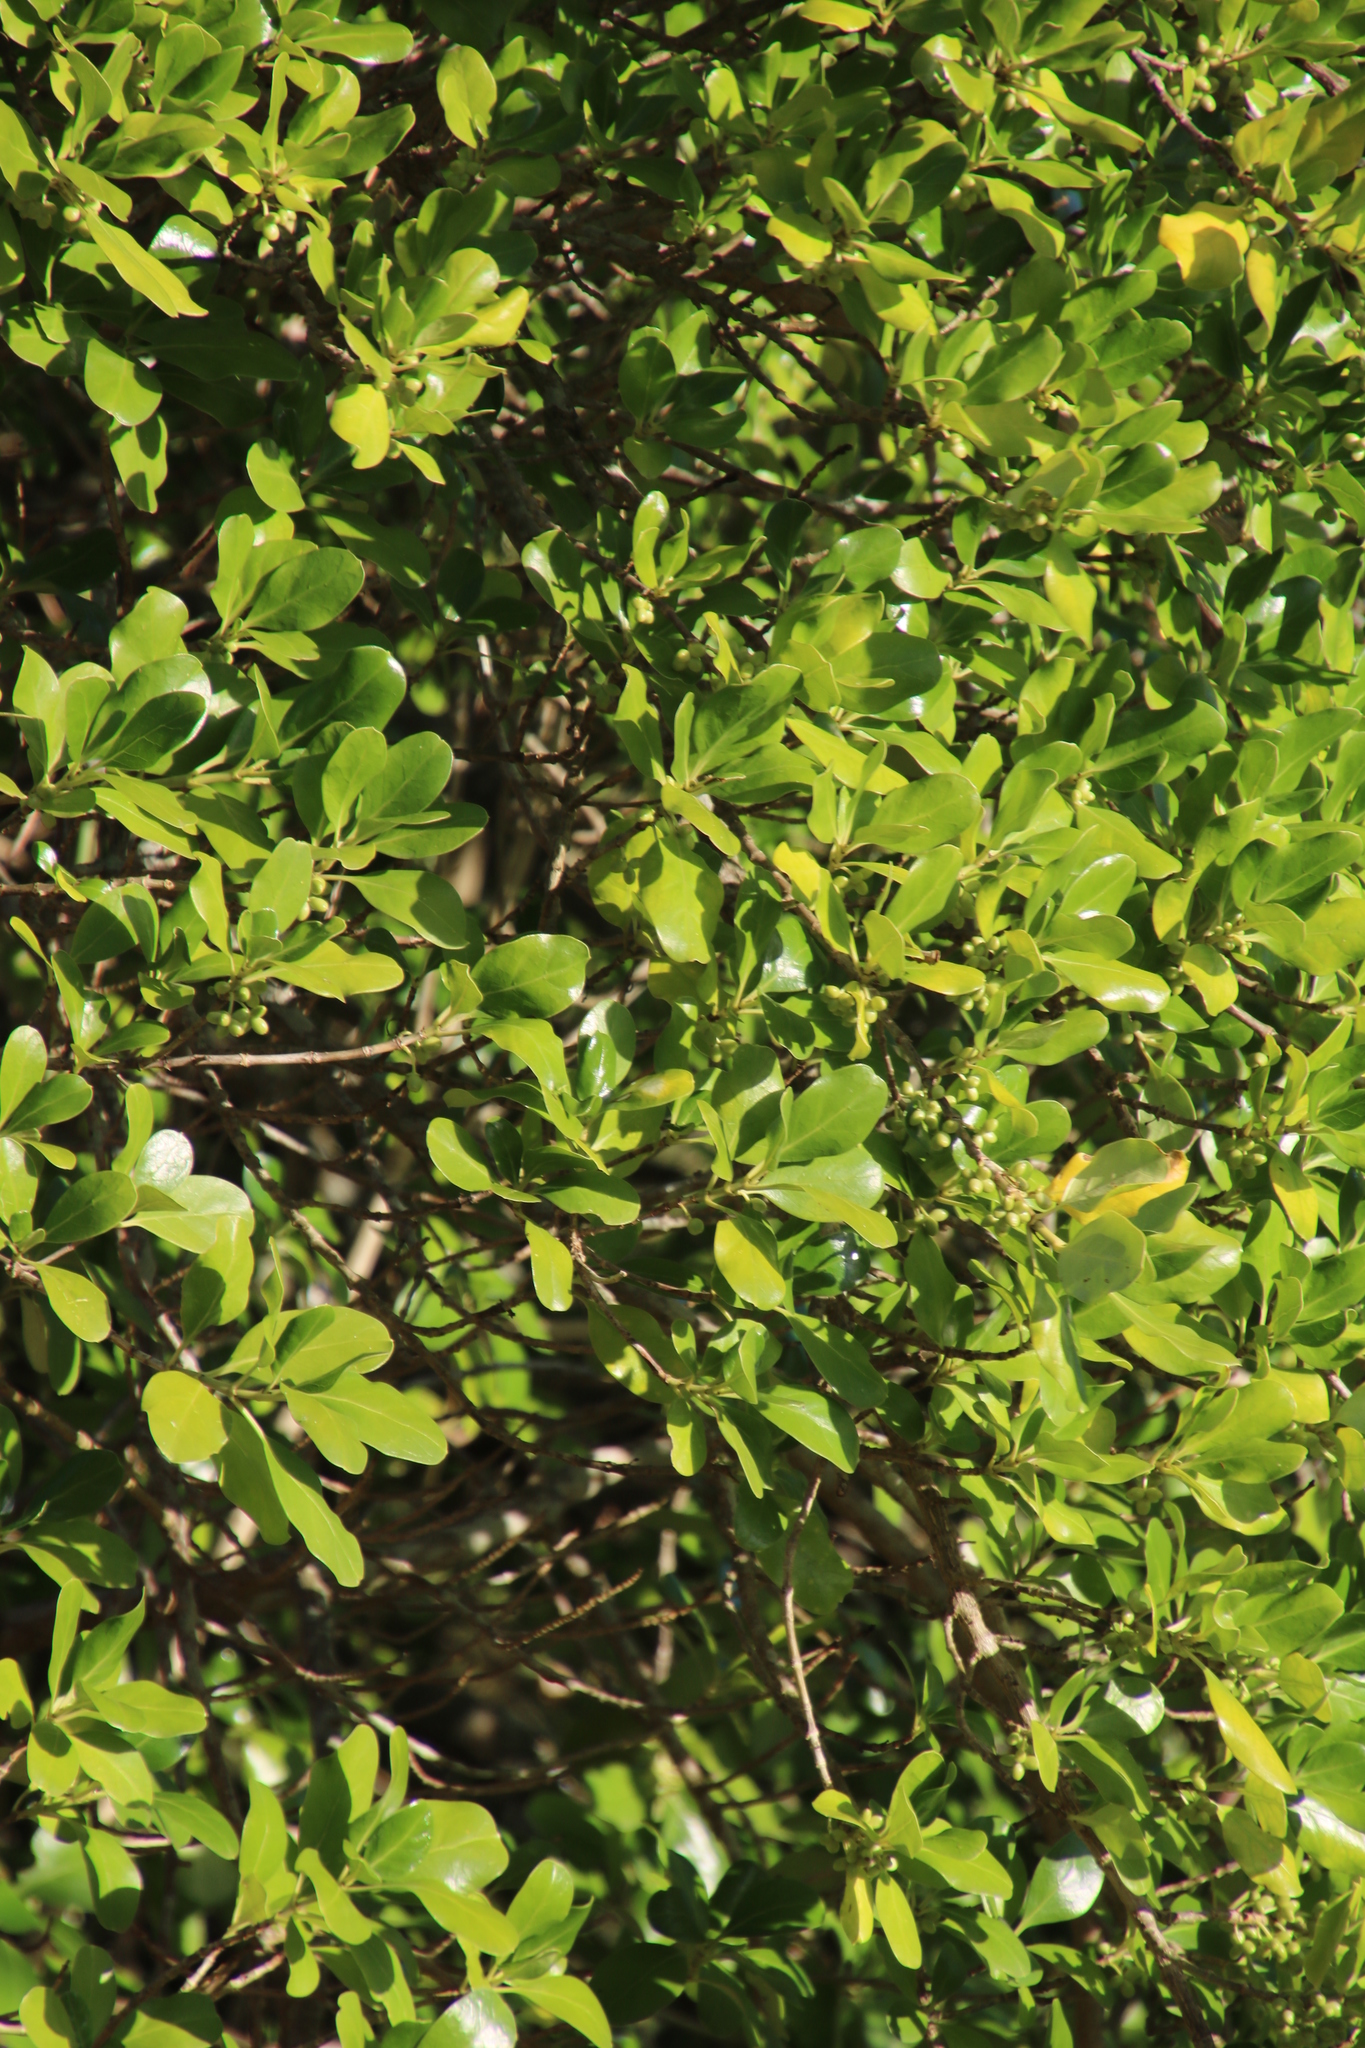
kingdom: Plantae
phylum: Tracheophyta
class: Magnoliopsida
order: Gentianales
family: Rubiaceae
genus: Coprosma
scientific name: Coprosma repens
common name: Tree bedstraw
